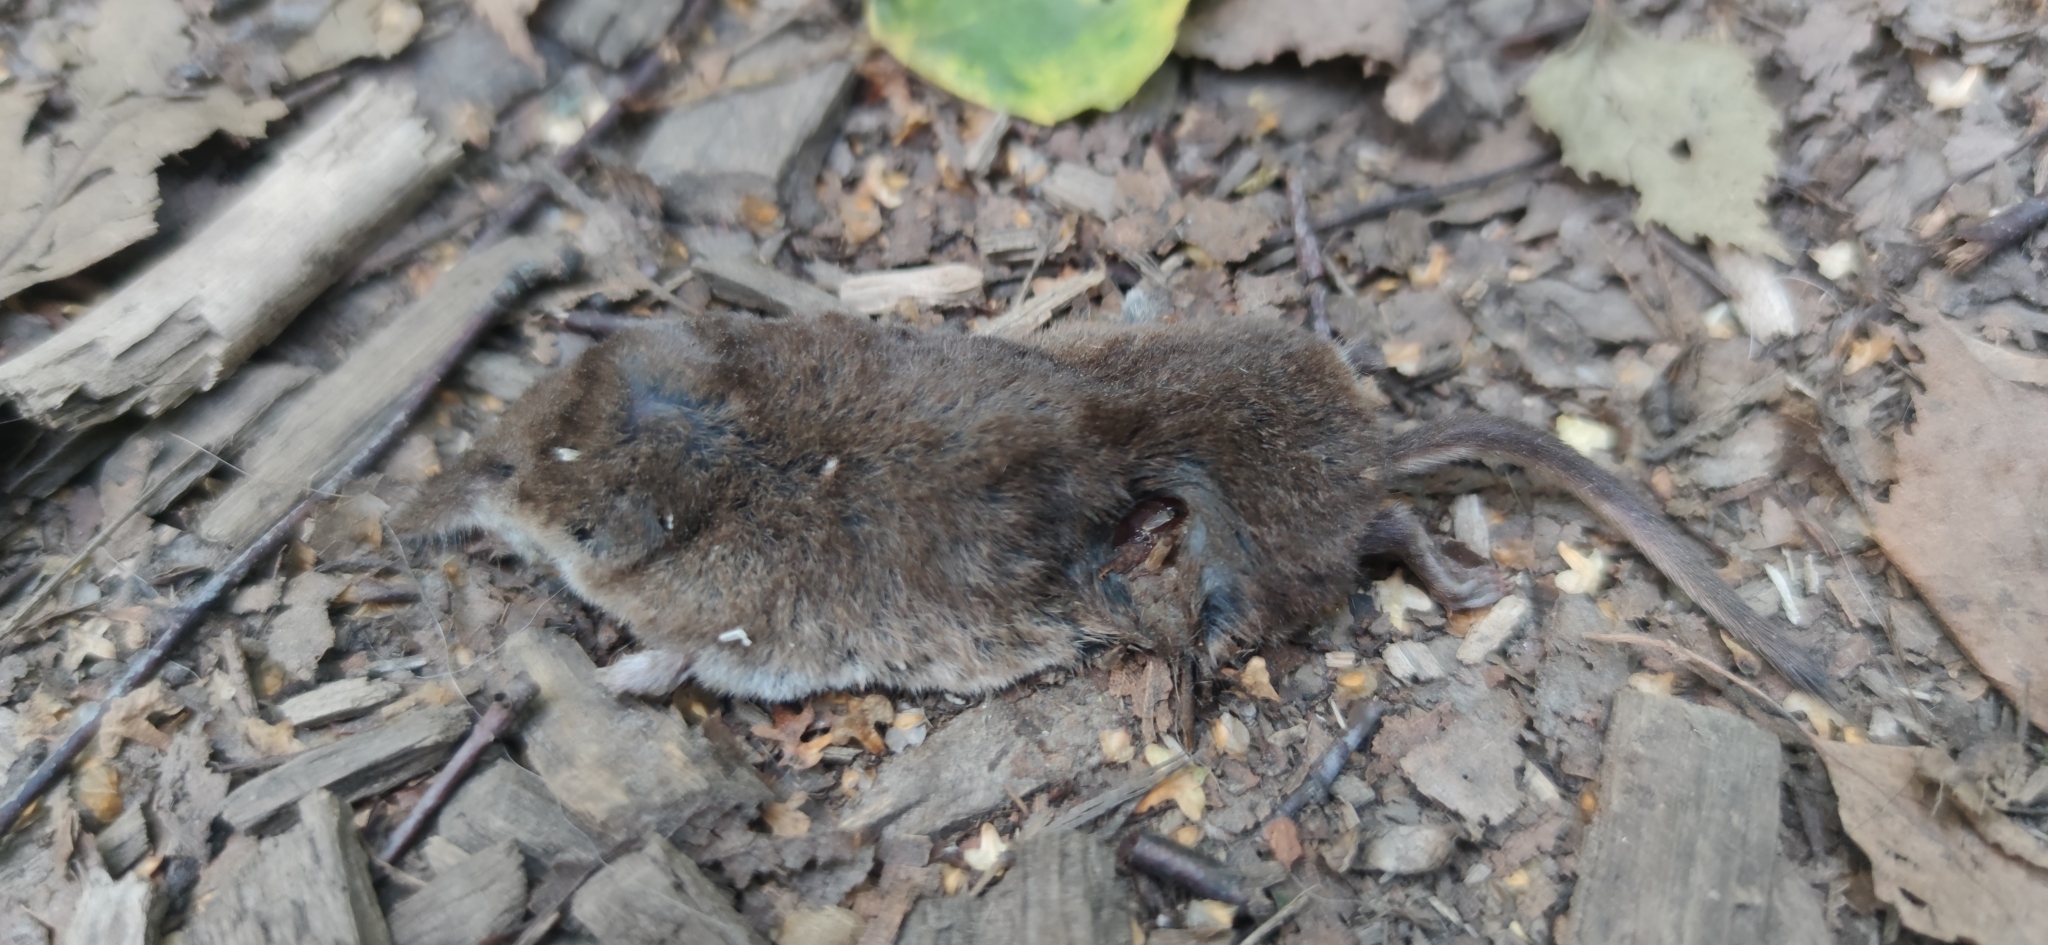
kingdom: Animalia
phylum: Chordata
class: Mammalia
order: Soricomorpha
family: Soricidae
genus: Sorex
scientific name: Sorex araneus
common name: Common shrew
